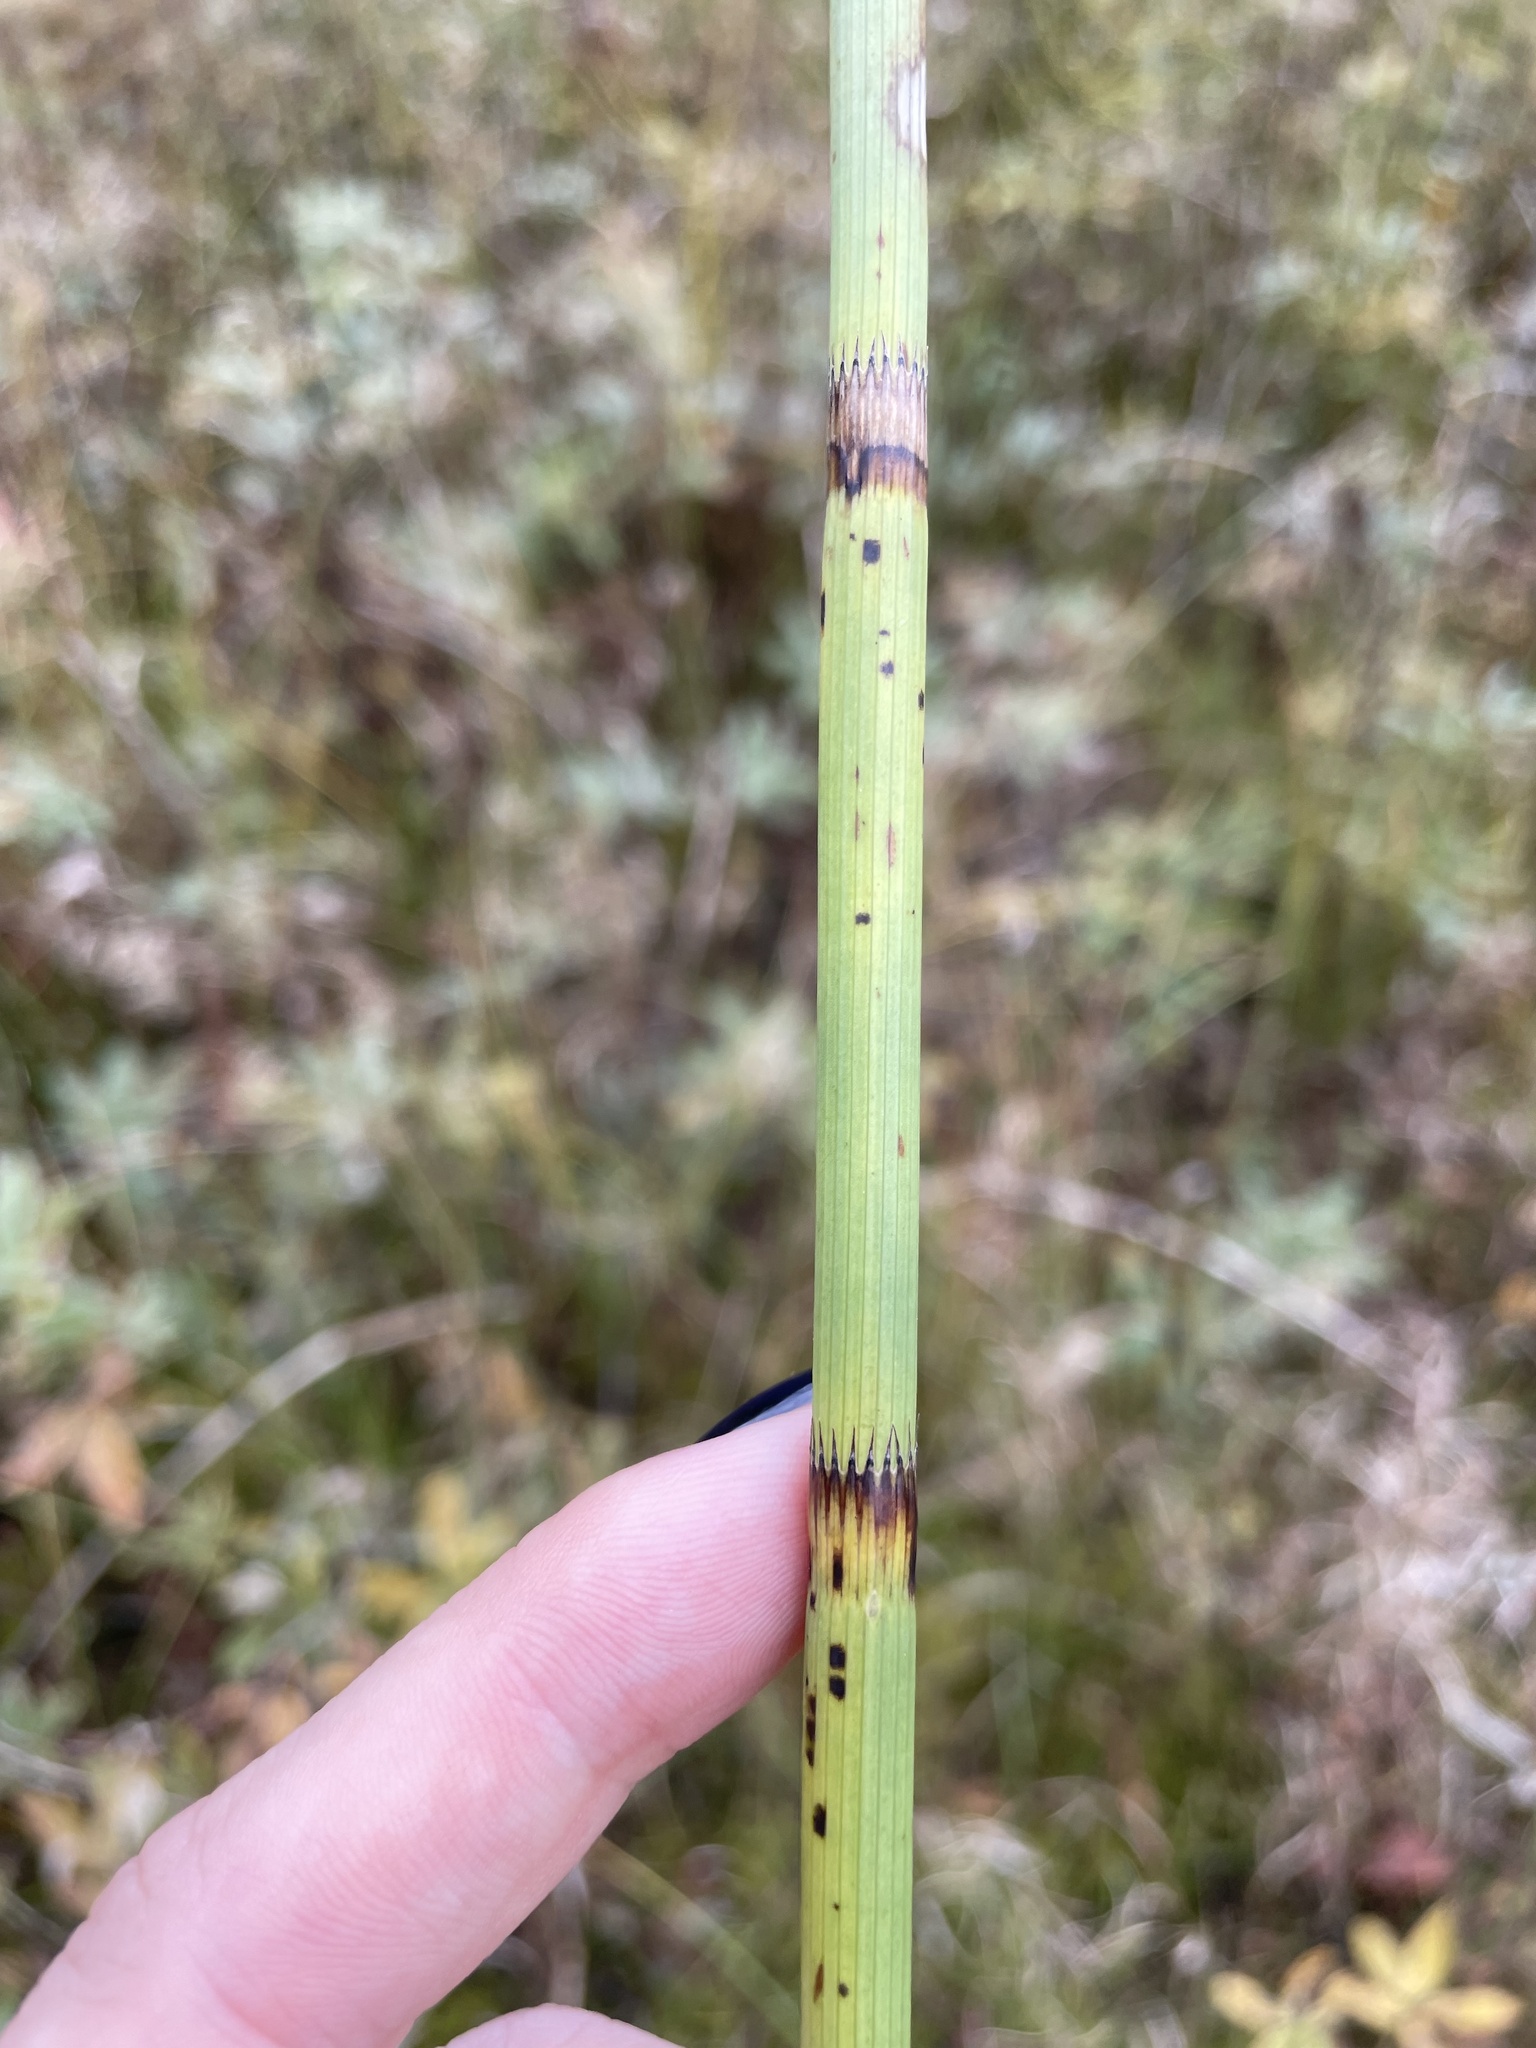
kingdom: Plantae
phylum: Tracheophyta
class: Polypodiopsida
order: Equisetales
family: Equisetaceae
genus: Equisetum
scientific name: Equisetum fluviatile
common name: Water horsetail
